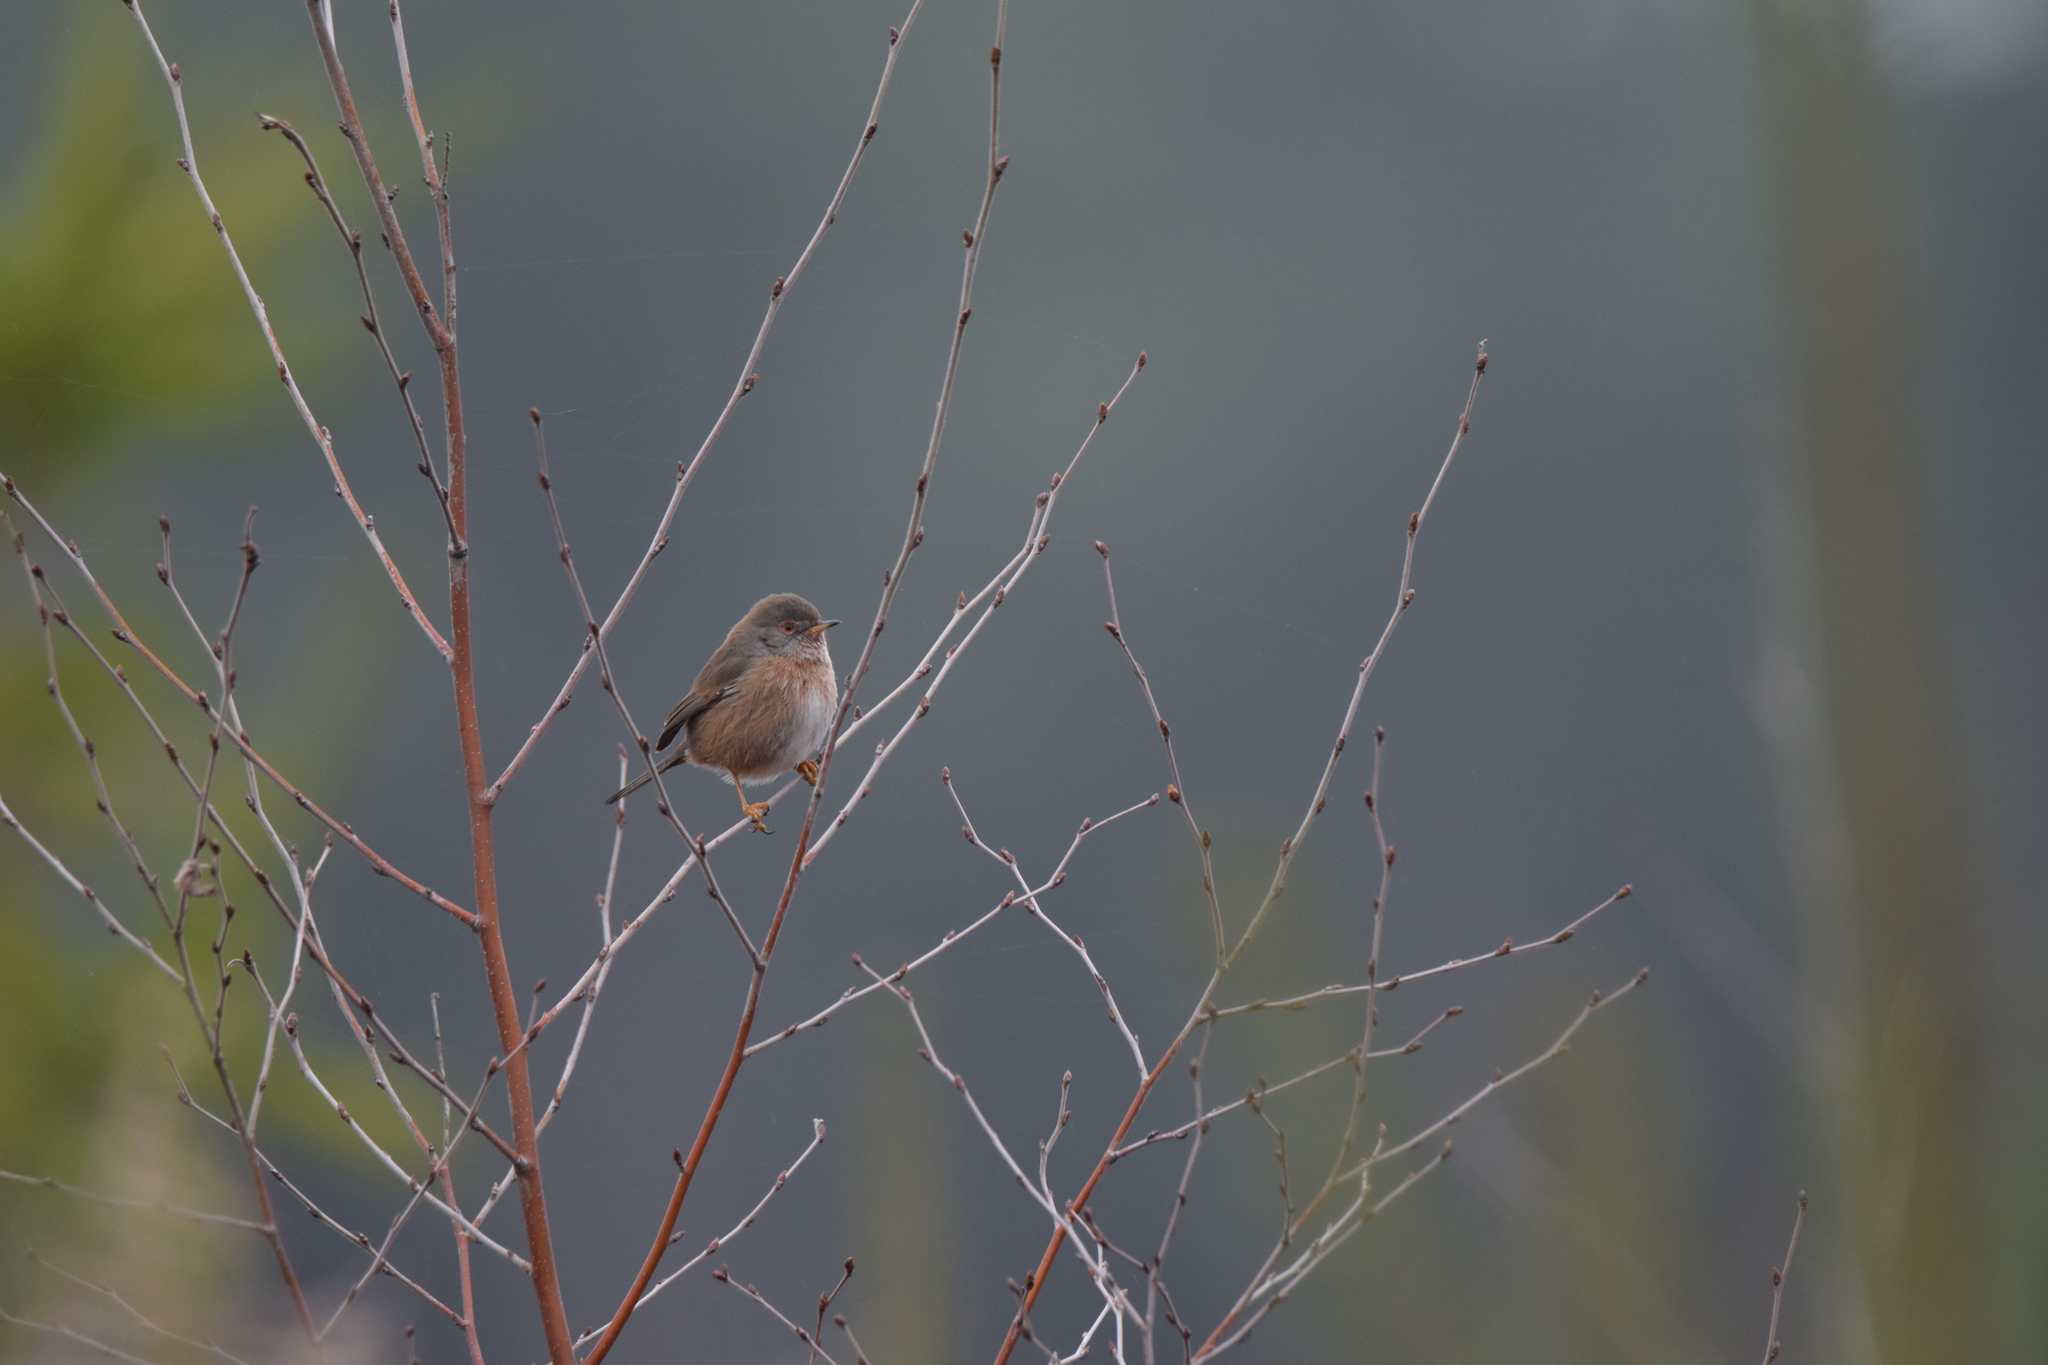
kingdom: Animalia
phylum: Chordata
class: Aves
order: Passeriformes
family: Sylviidae
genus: Sylvia
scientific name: Sylvia undata
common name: Dartford warbler
